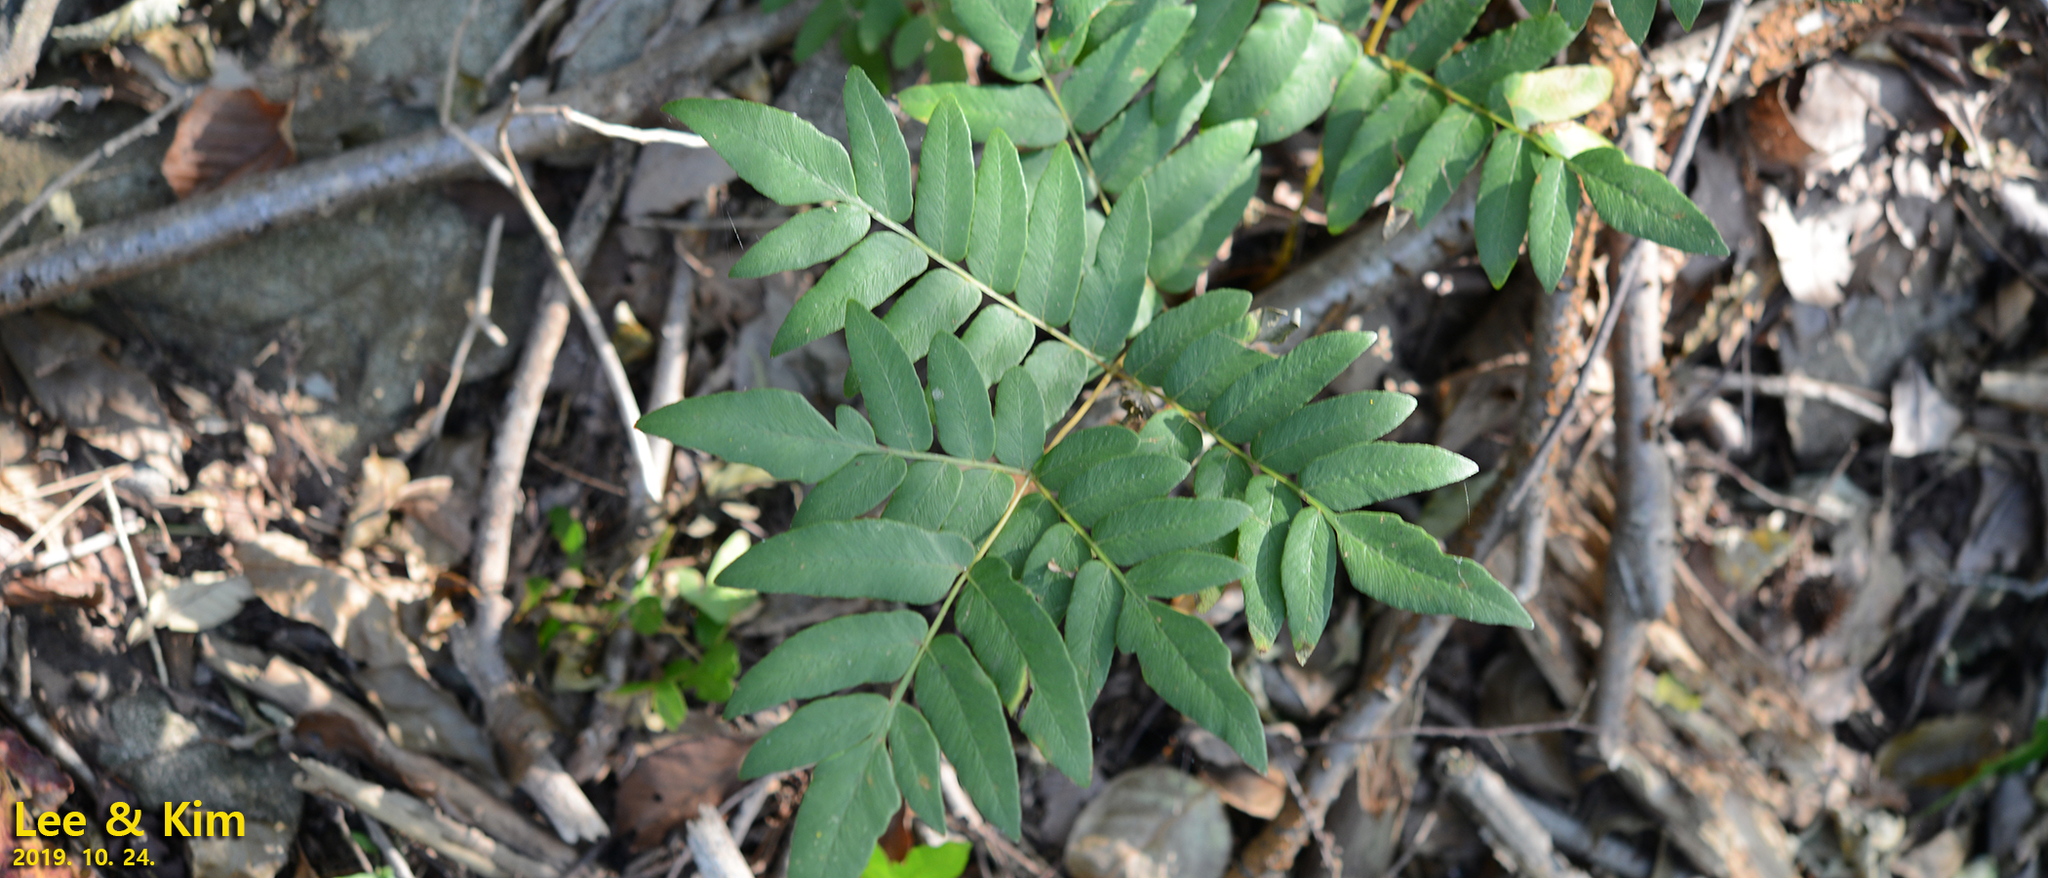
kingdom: Plantae
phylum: Tracheophyta
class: Polypodiopsida
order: Osmundales
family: Osmundaceae
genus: Osmunda
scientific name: Osmunda japonica
